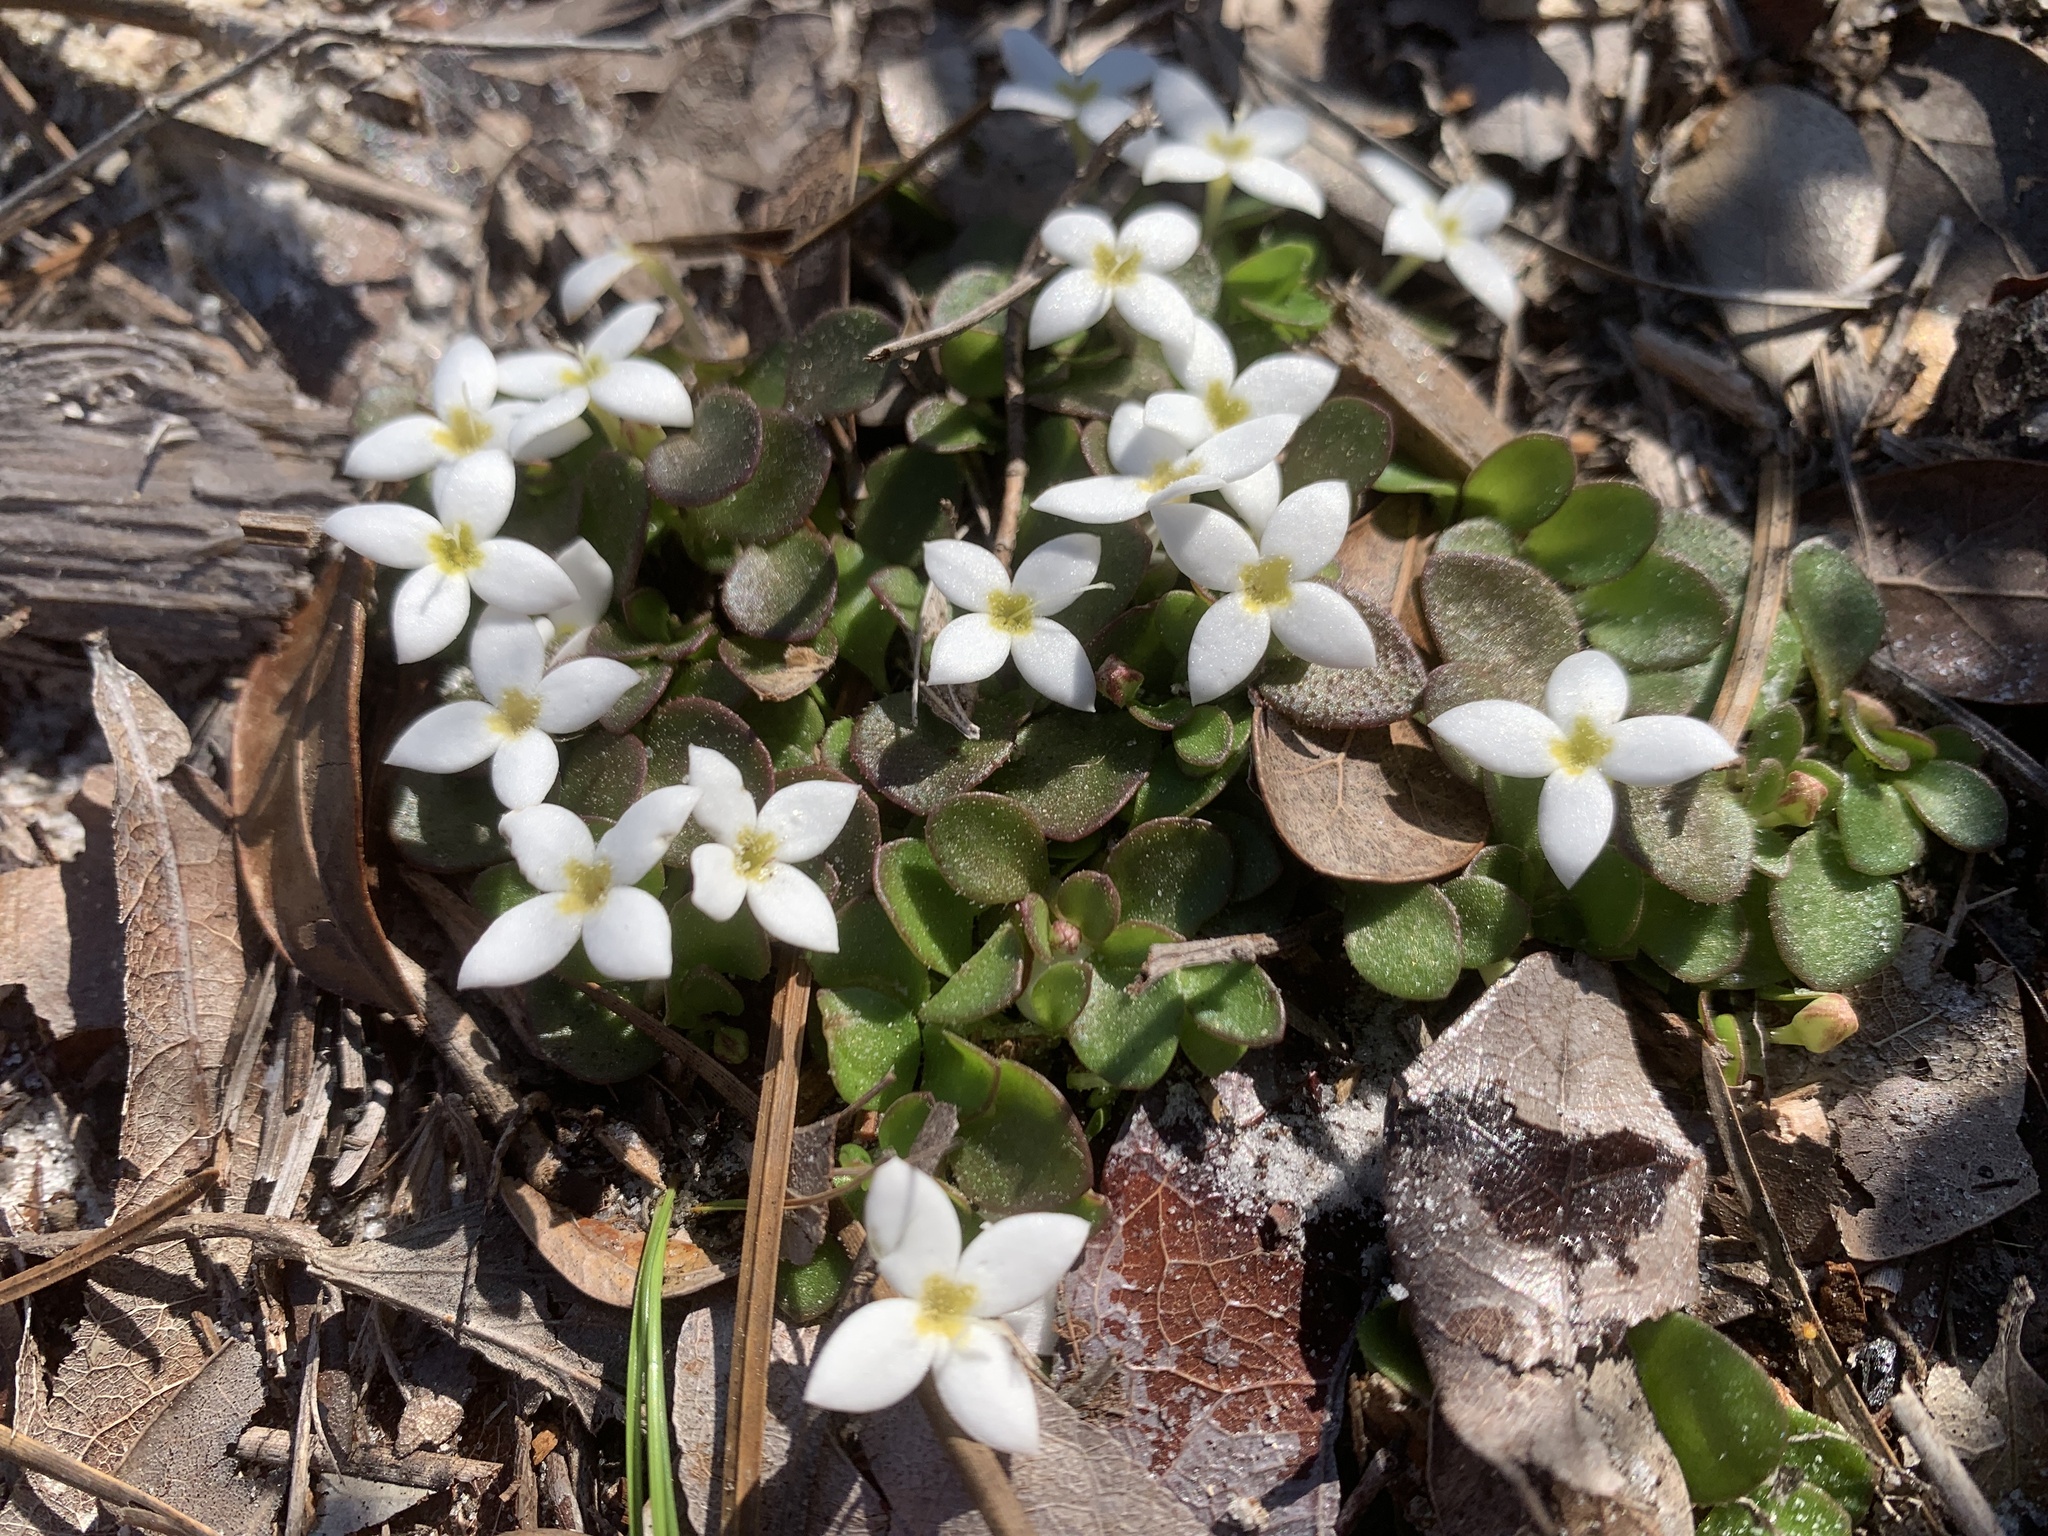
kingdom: Plantae
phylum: Tracheophyta
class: Magnoliopsida
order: Gentianales
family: Rubiaceae
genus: Houstonia
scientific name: Houstonia procumbens
